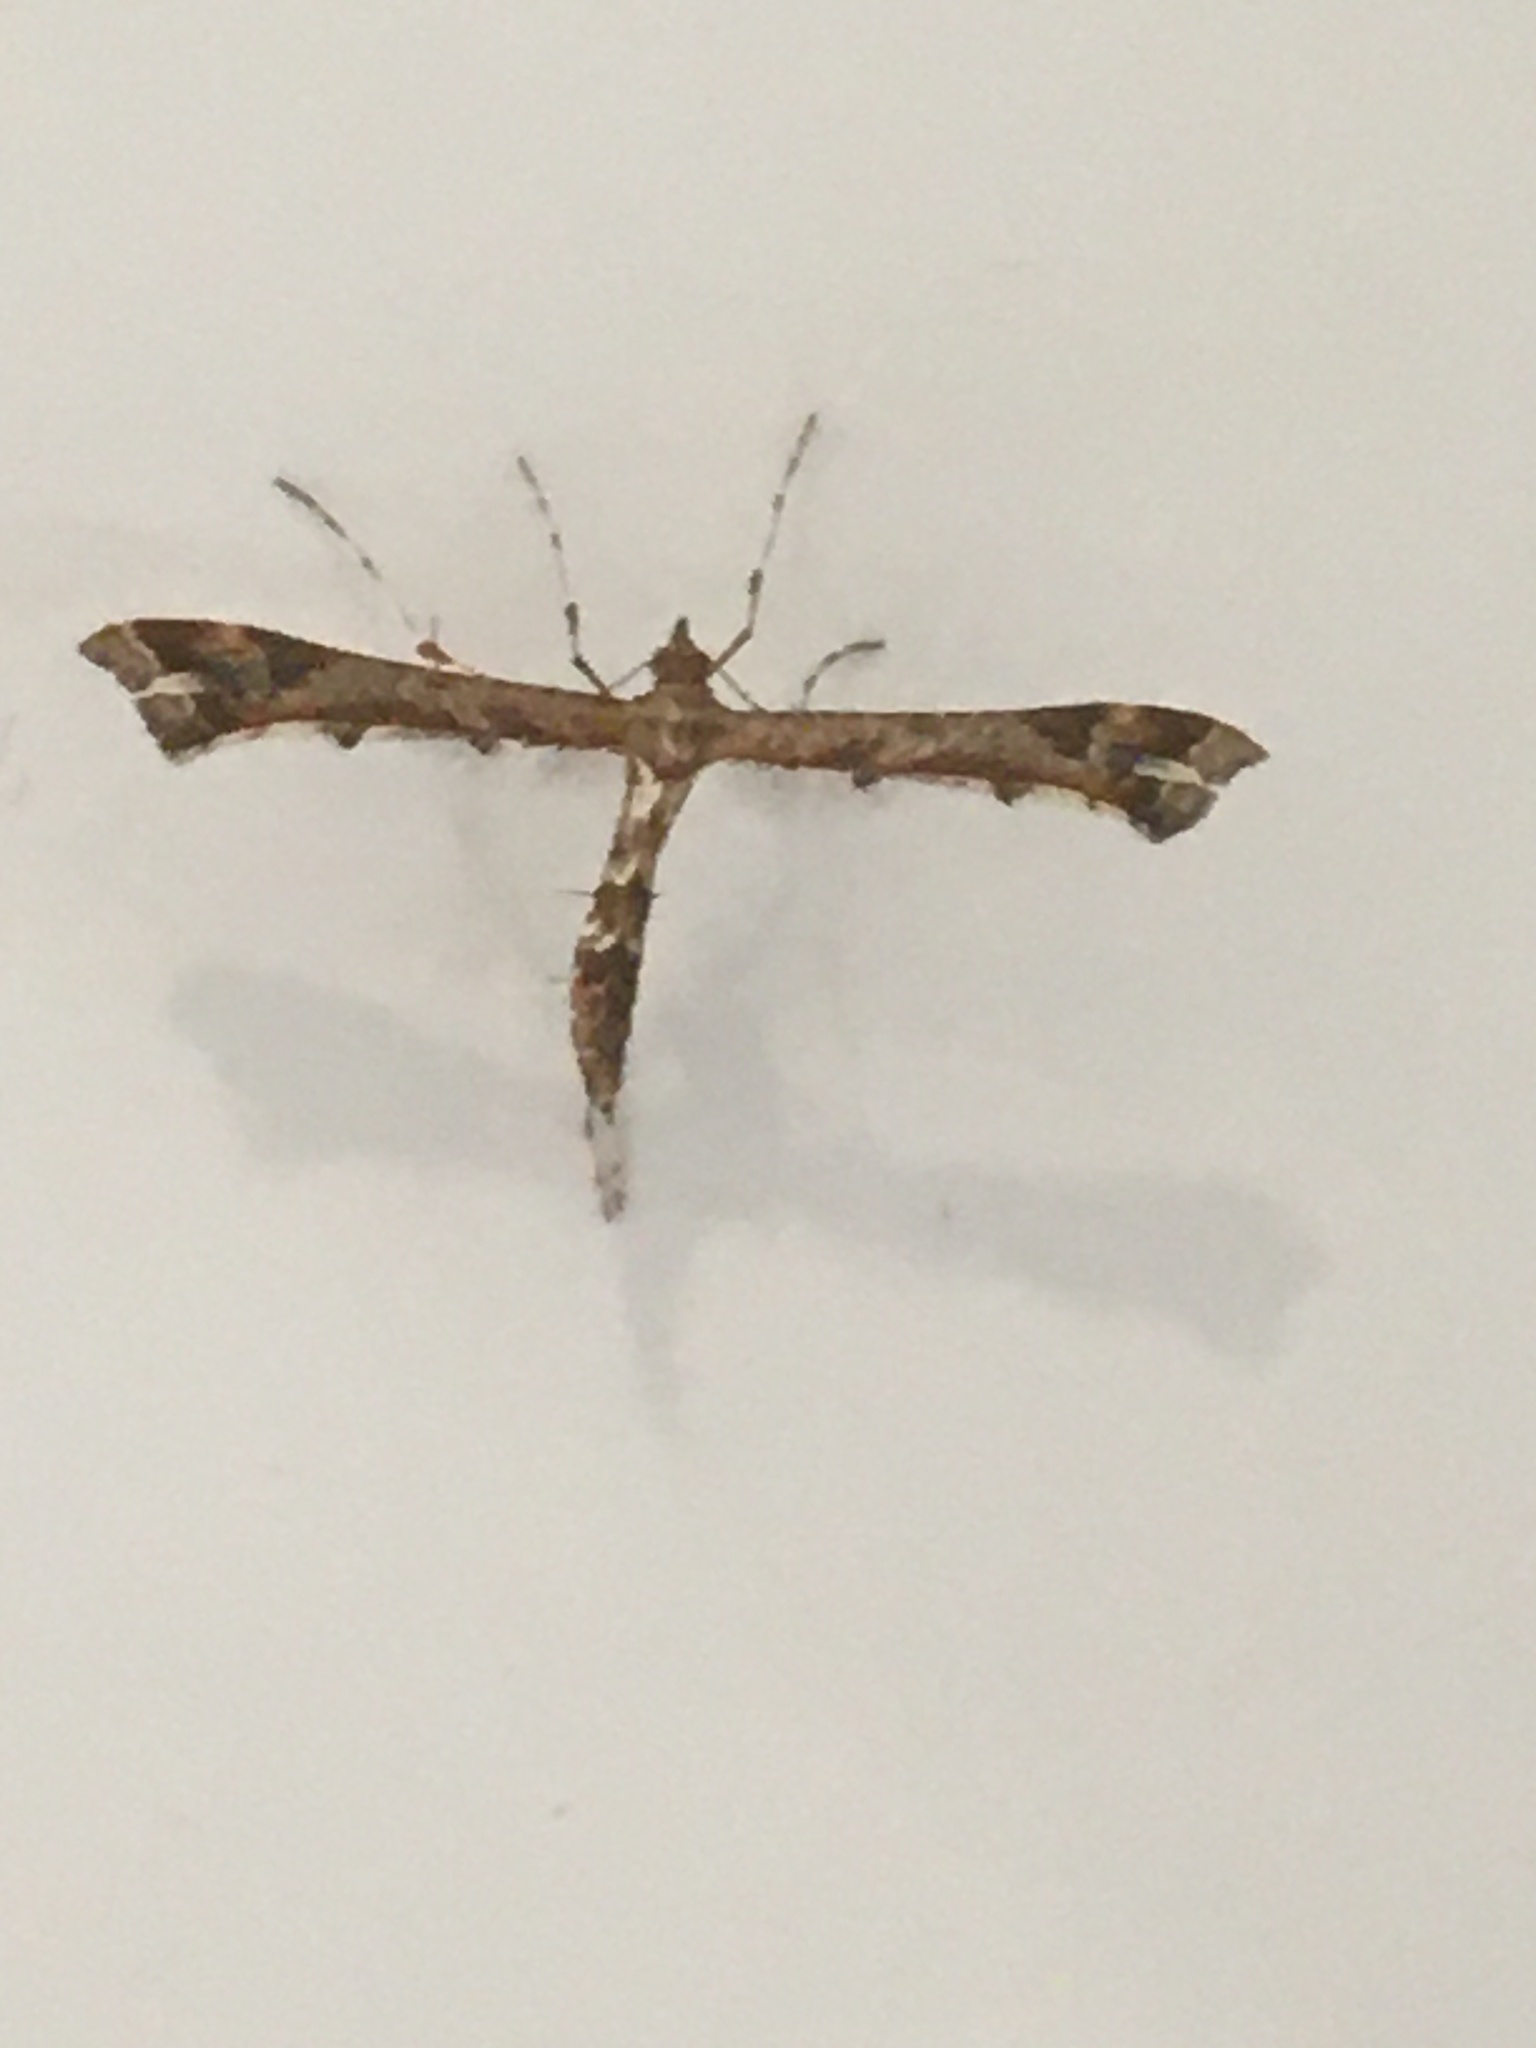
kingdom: Animalia
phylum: Arthropoda
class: Insecta
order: Lepidoptera
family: Pterophoridae
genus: Amblyptilia
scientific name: Amblyptilia acanthadactyla
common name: Beautiful plume
